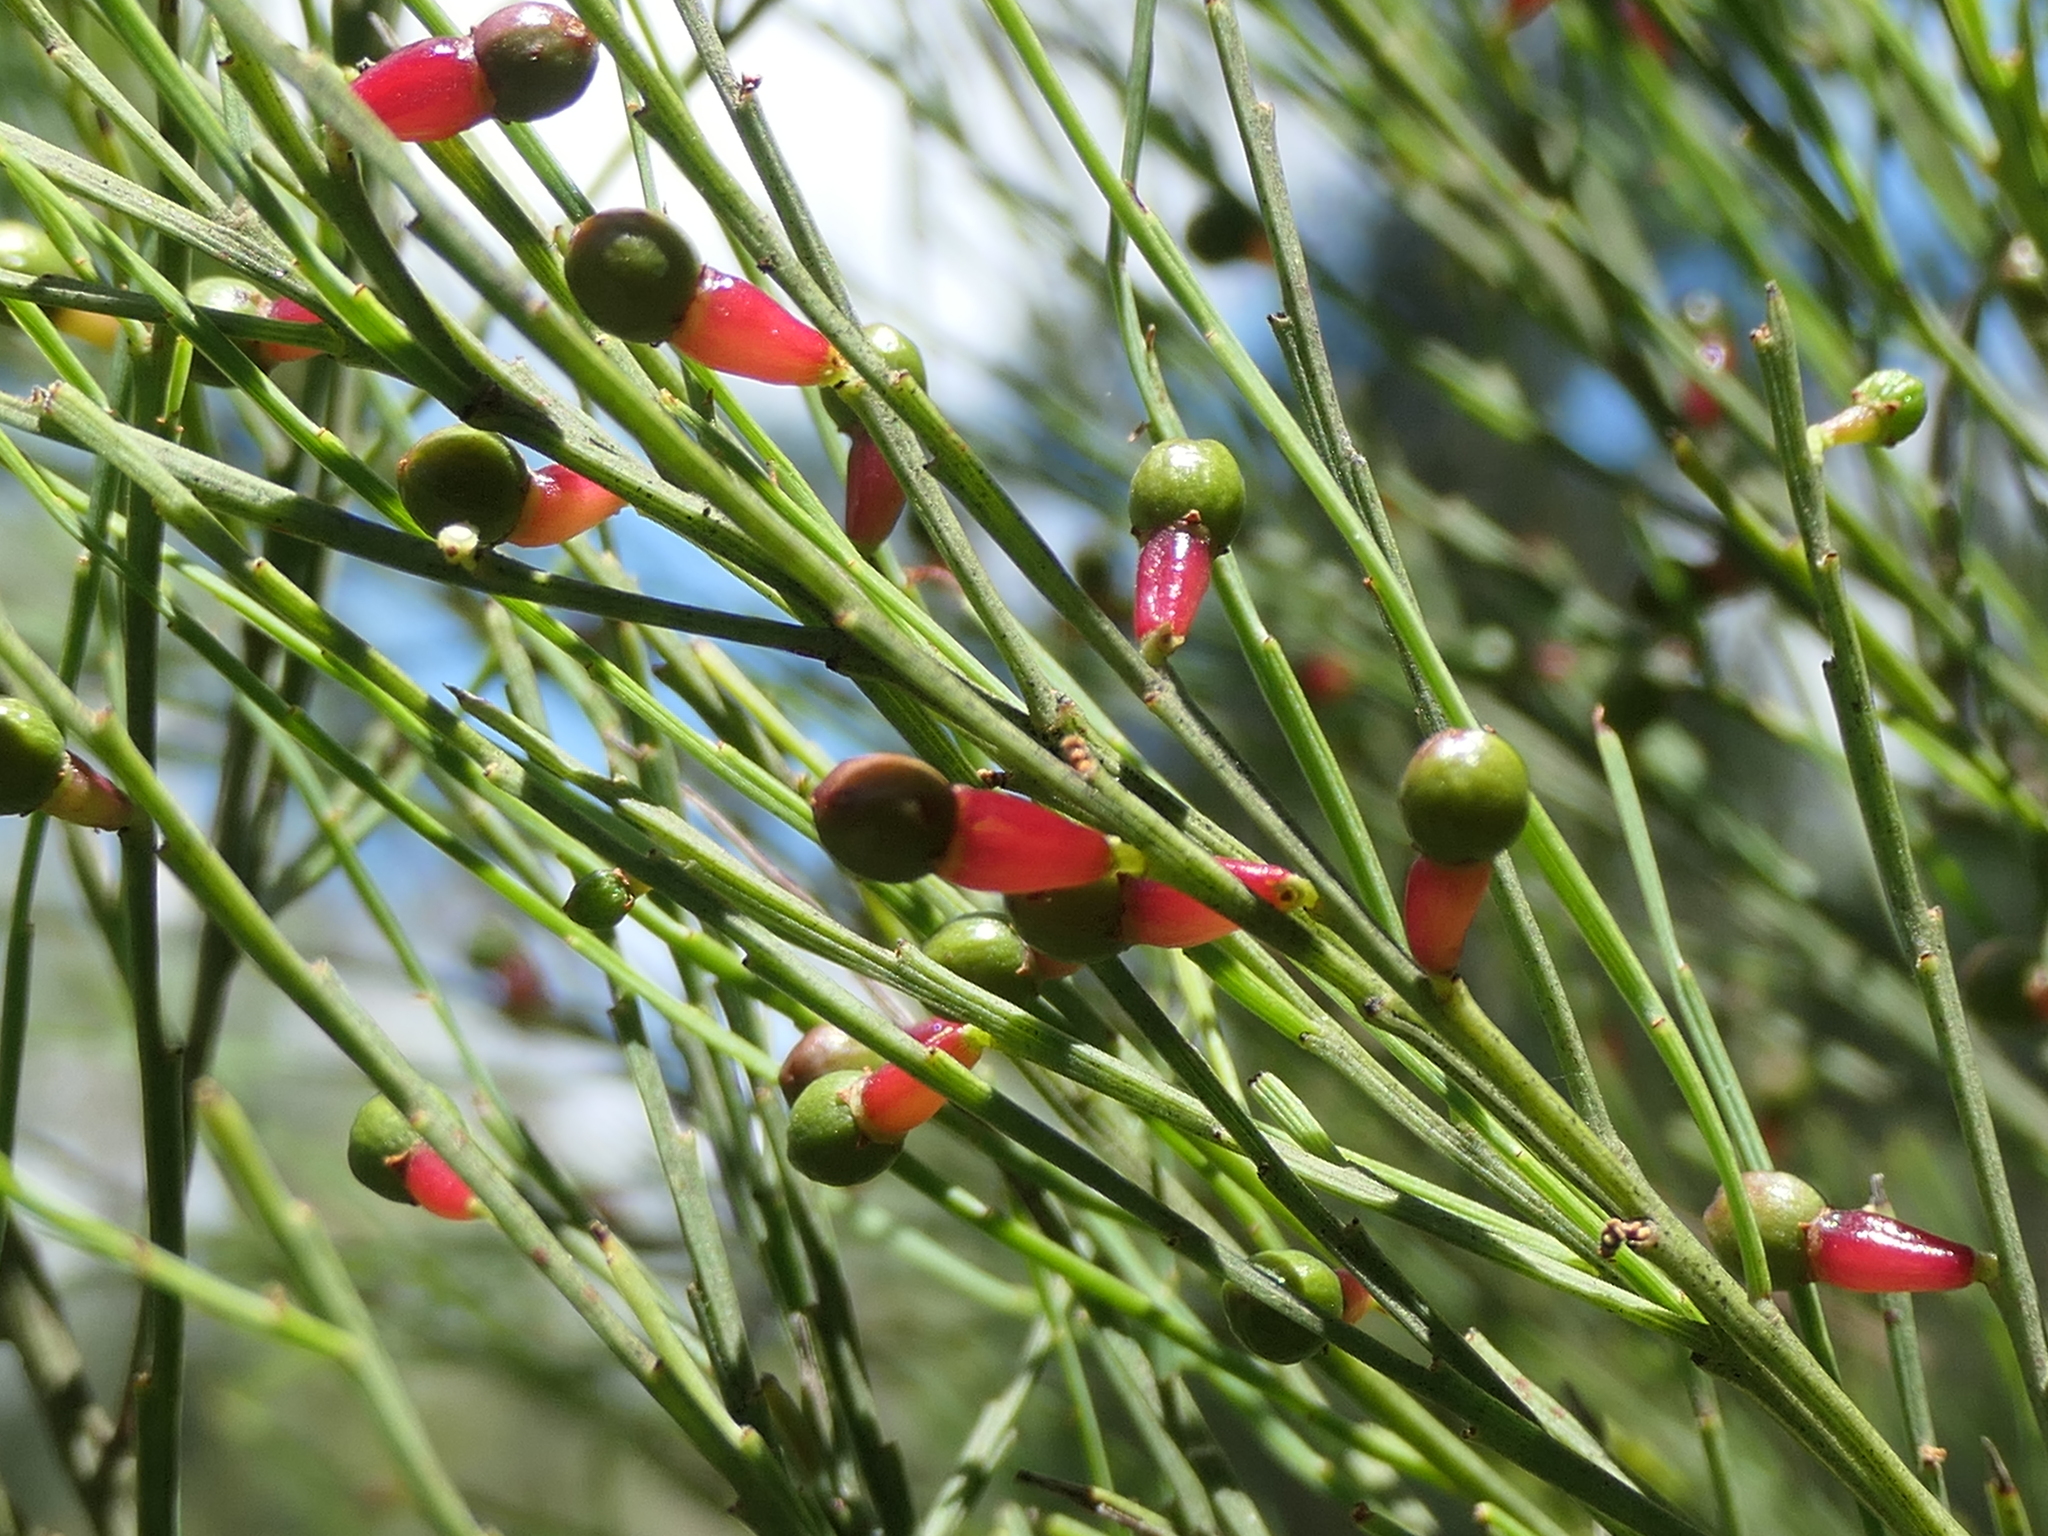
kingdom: Plantae
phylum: Tracheophyta
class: Magnoliopsida
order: Santalales
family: Santalaceae
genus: Exocarpos
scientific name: Exocarpos strictus
